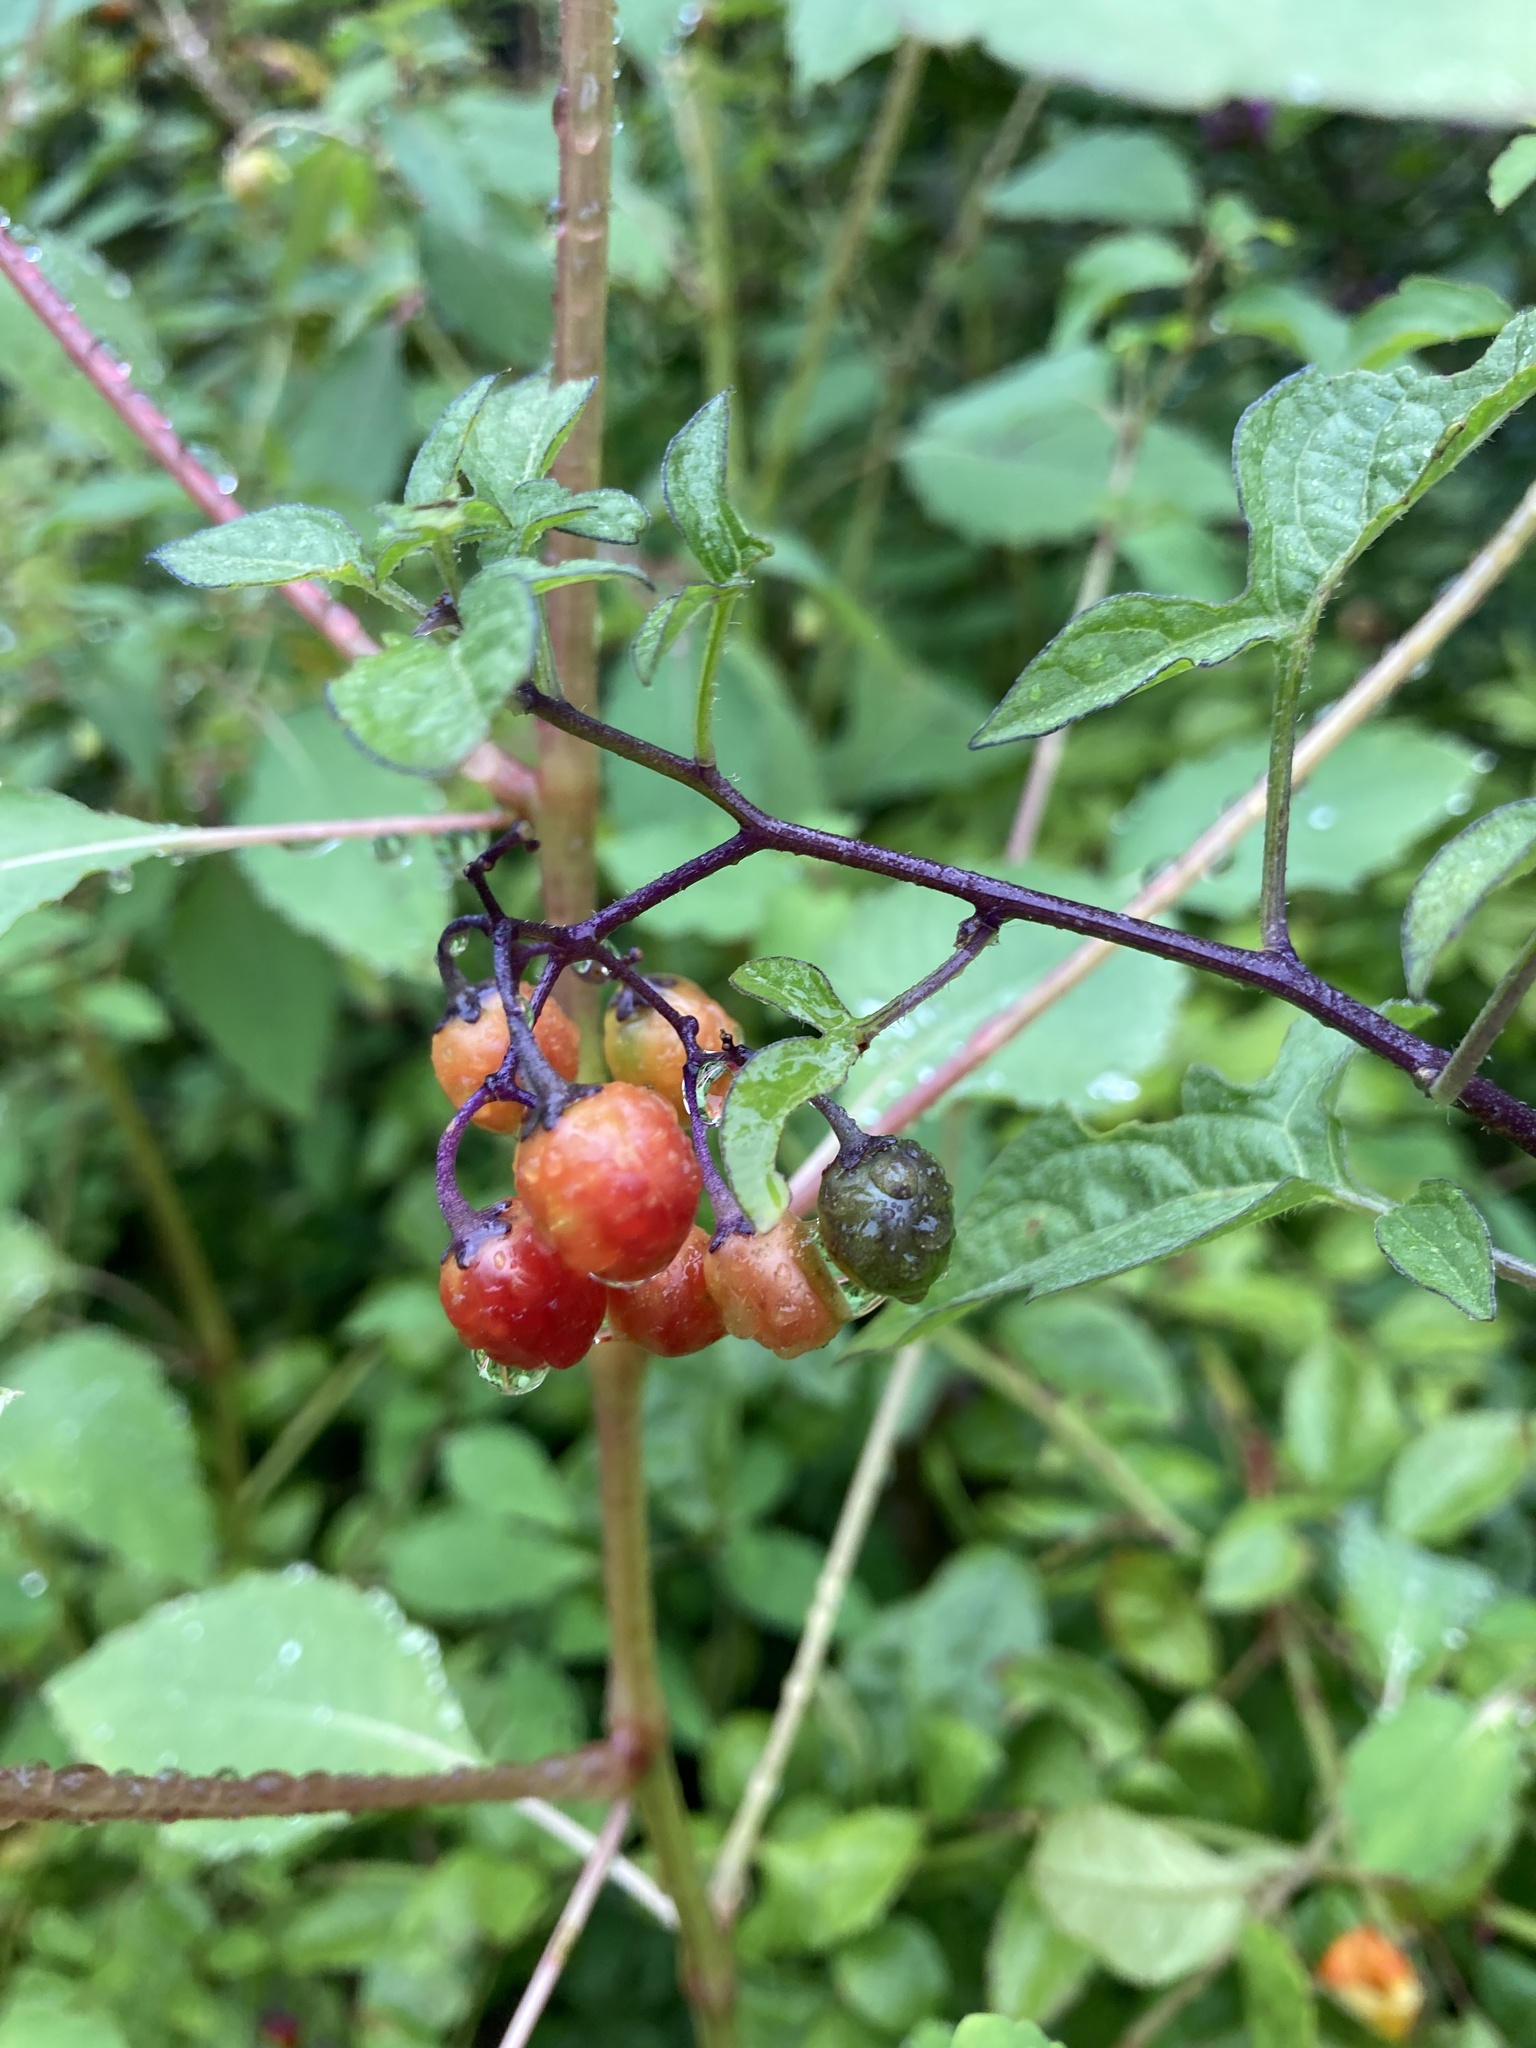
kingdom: Plantae
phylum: Tracheophyta
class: Magnoliopsida
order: Solanales
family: Solanaceae
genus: Solanum
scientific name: Solanum dulcamara
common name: Climbing nightshade
